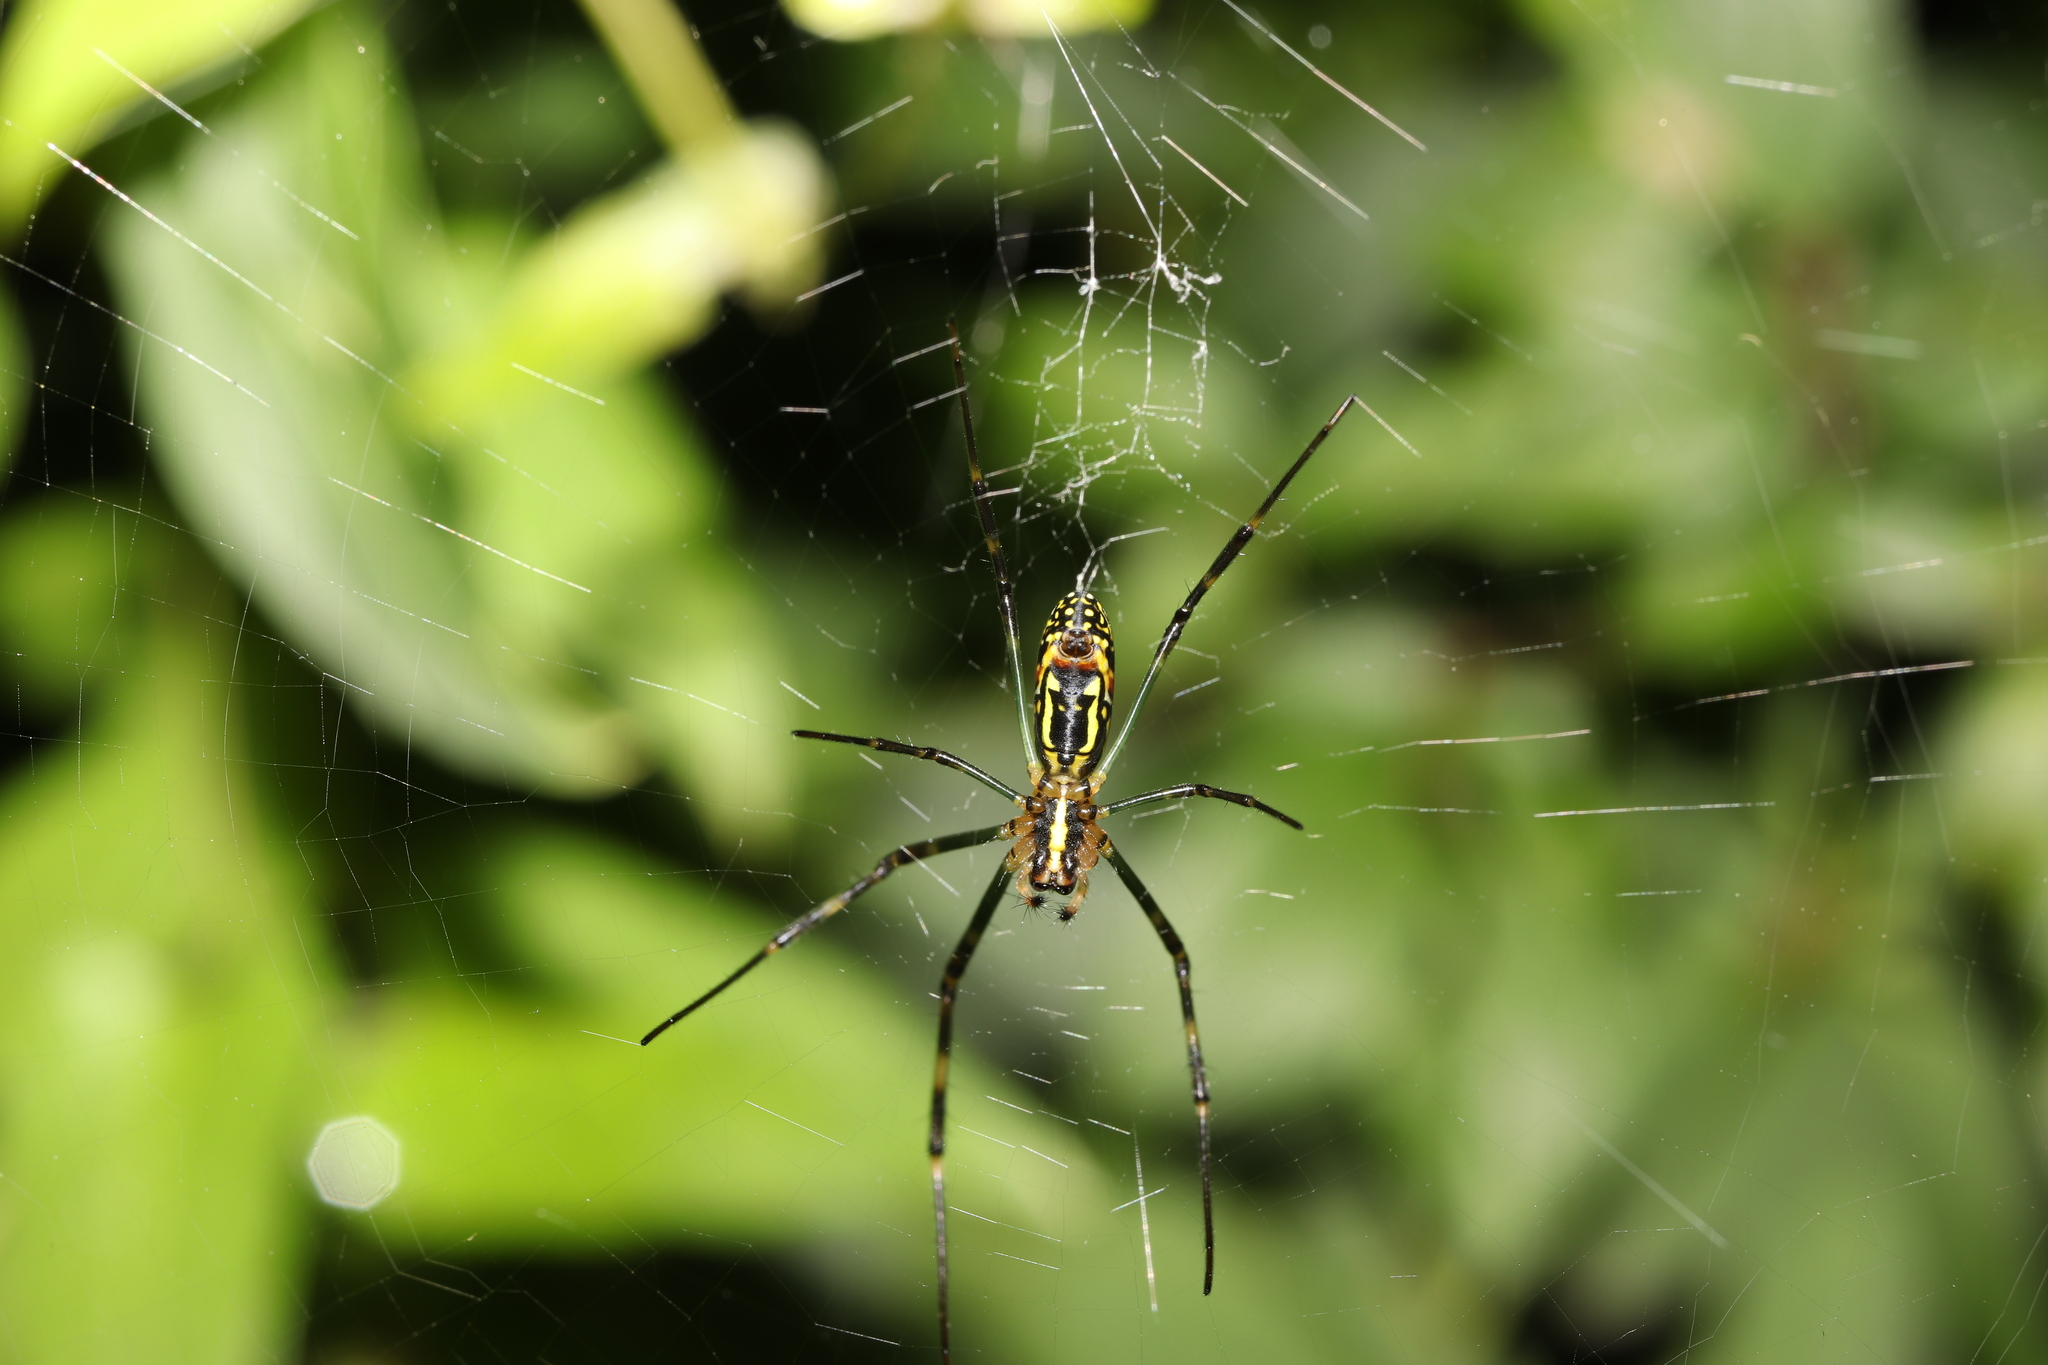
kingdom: Animalia
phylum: Arthropoda
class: Arachnida
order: Araneae
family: Araneidae
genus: Trichonephila
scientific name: Trichonephila clavata
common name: Jorō spider
